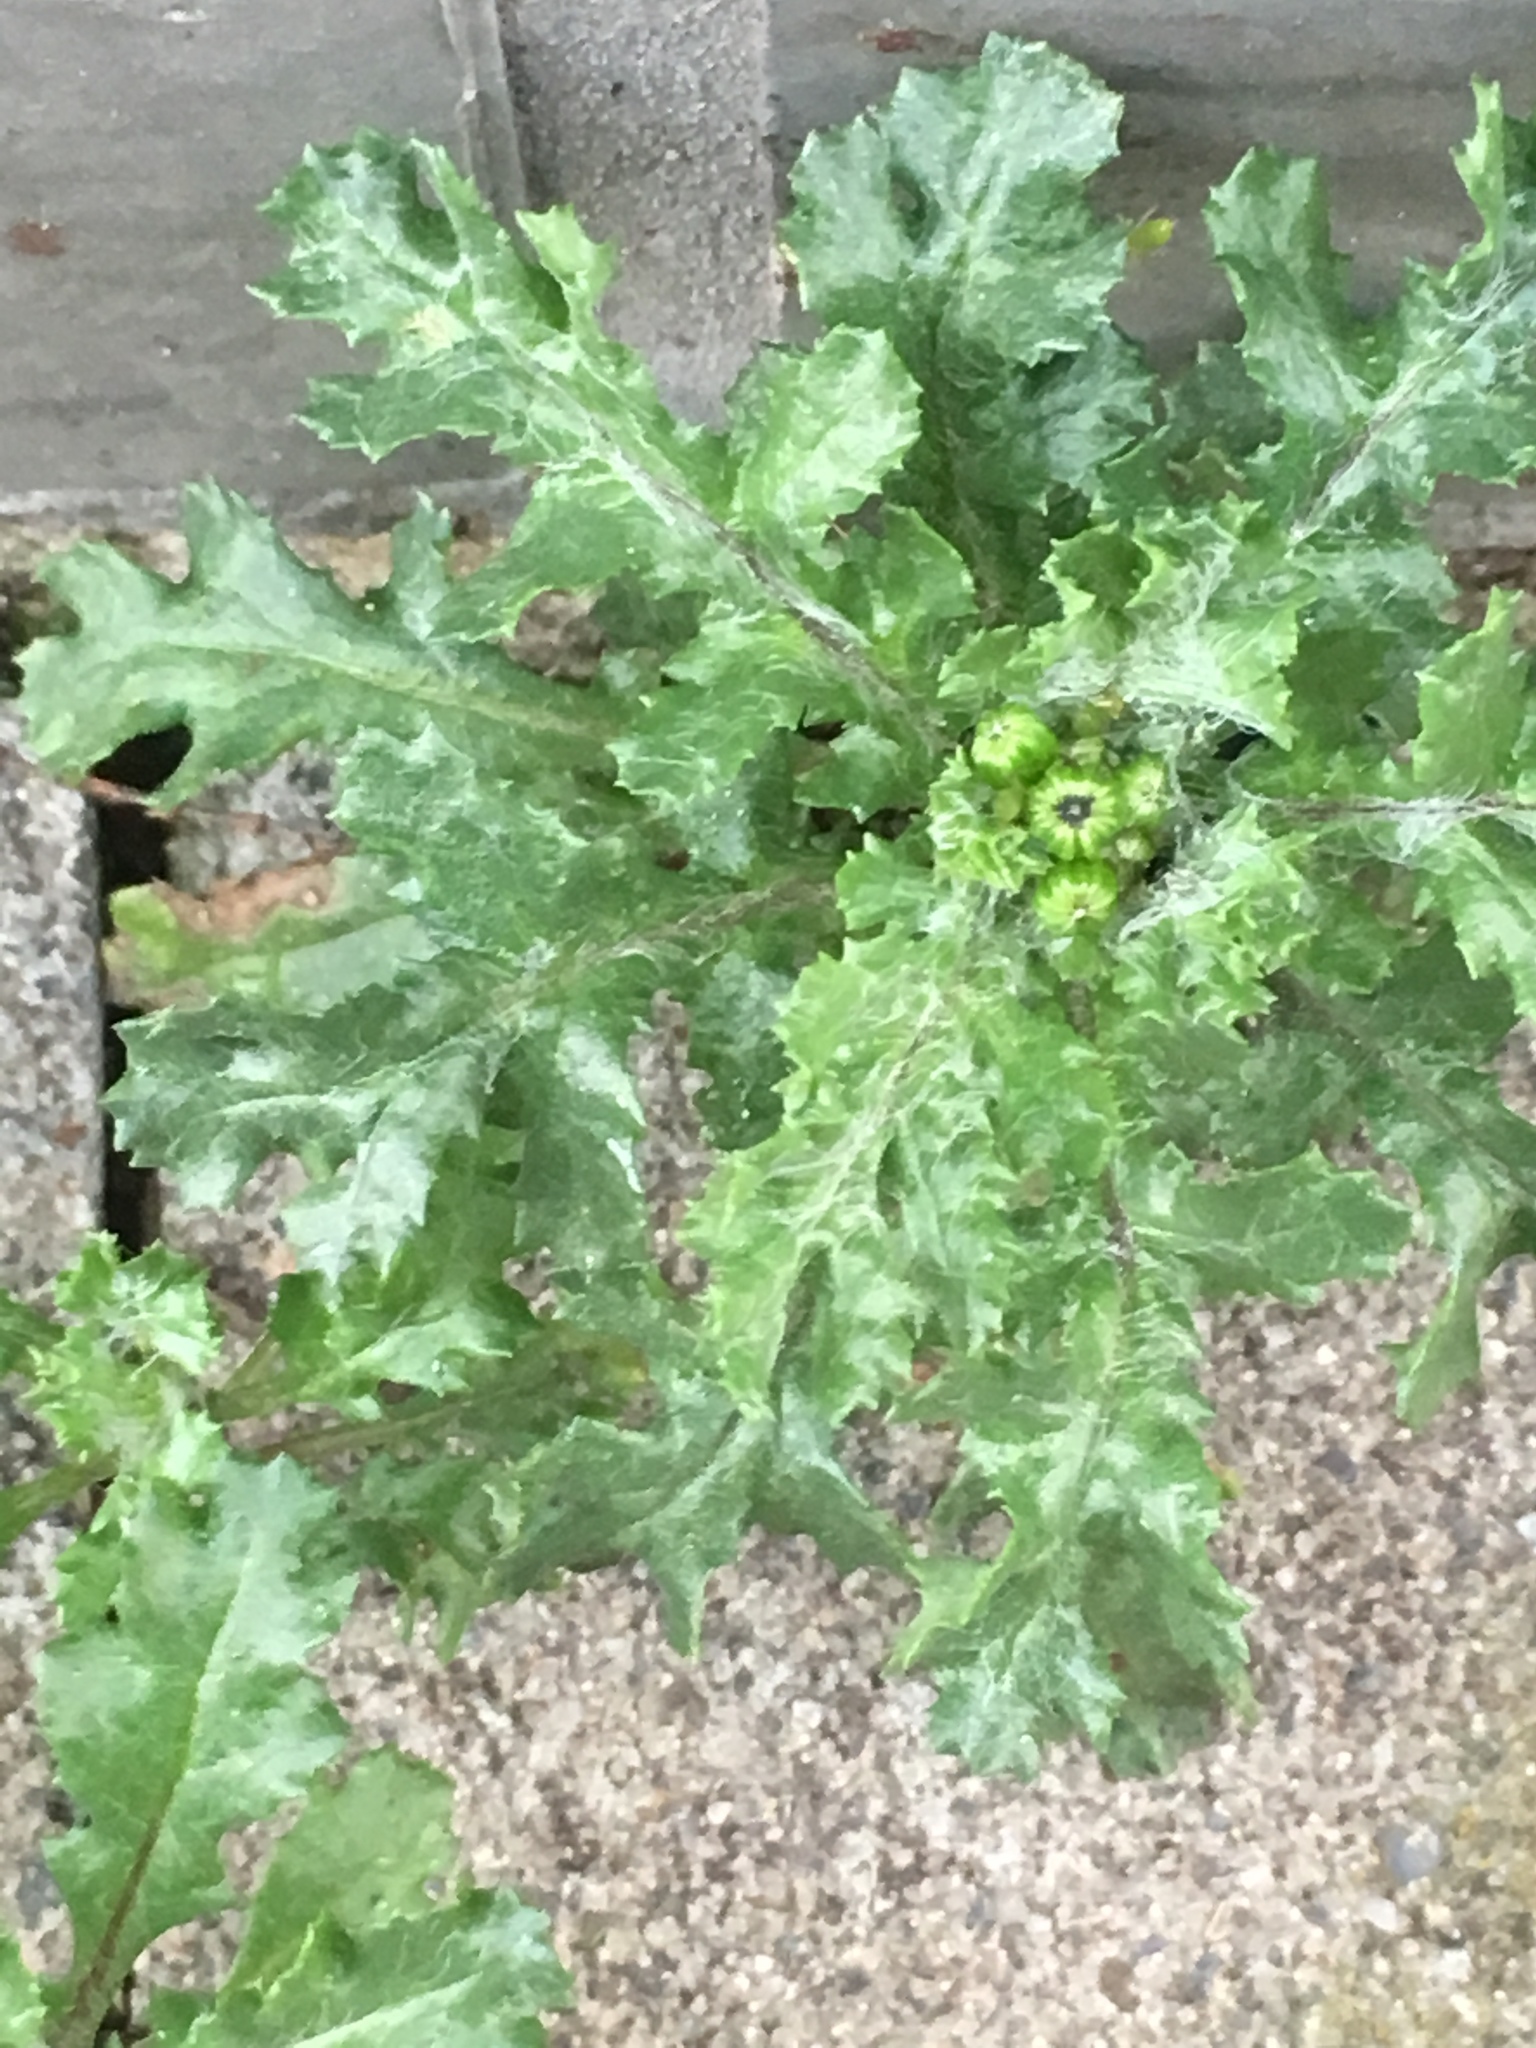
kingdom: Plantae
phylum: Tracheophyta
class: Magnoliopsida
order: Asterales
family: Asteraceae
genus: Senecio
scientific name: Senecio vulgaris
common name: Old-man-in-the-spring
